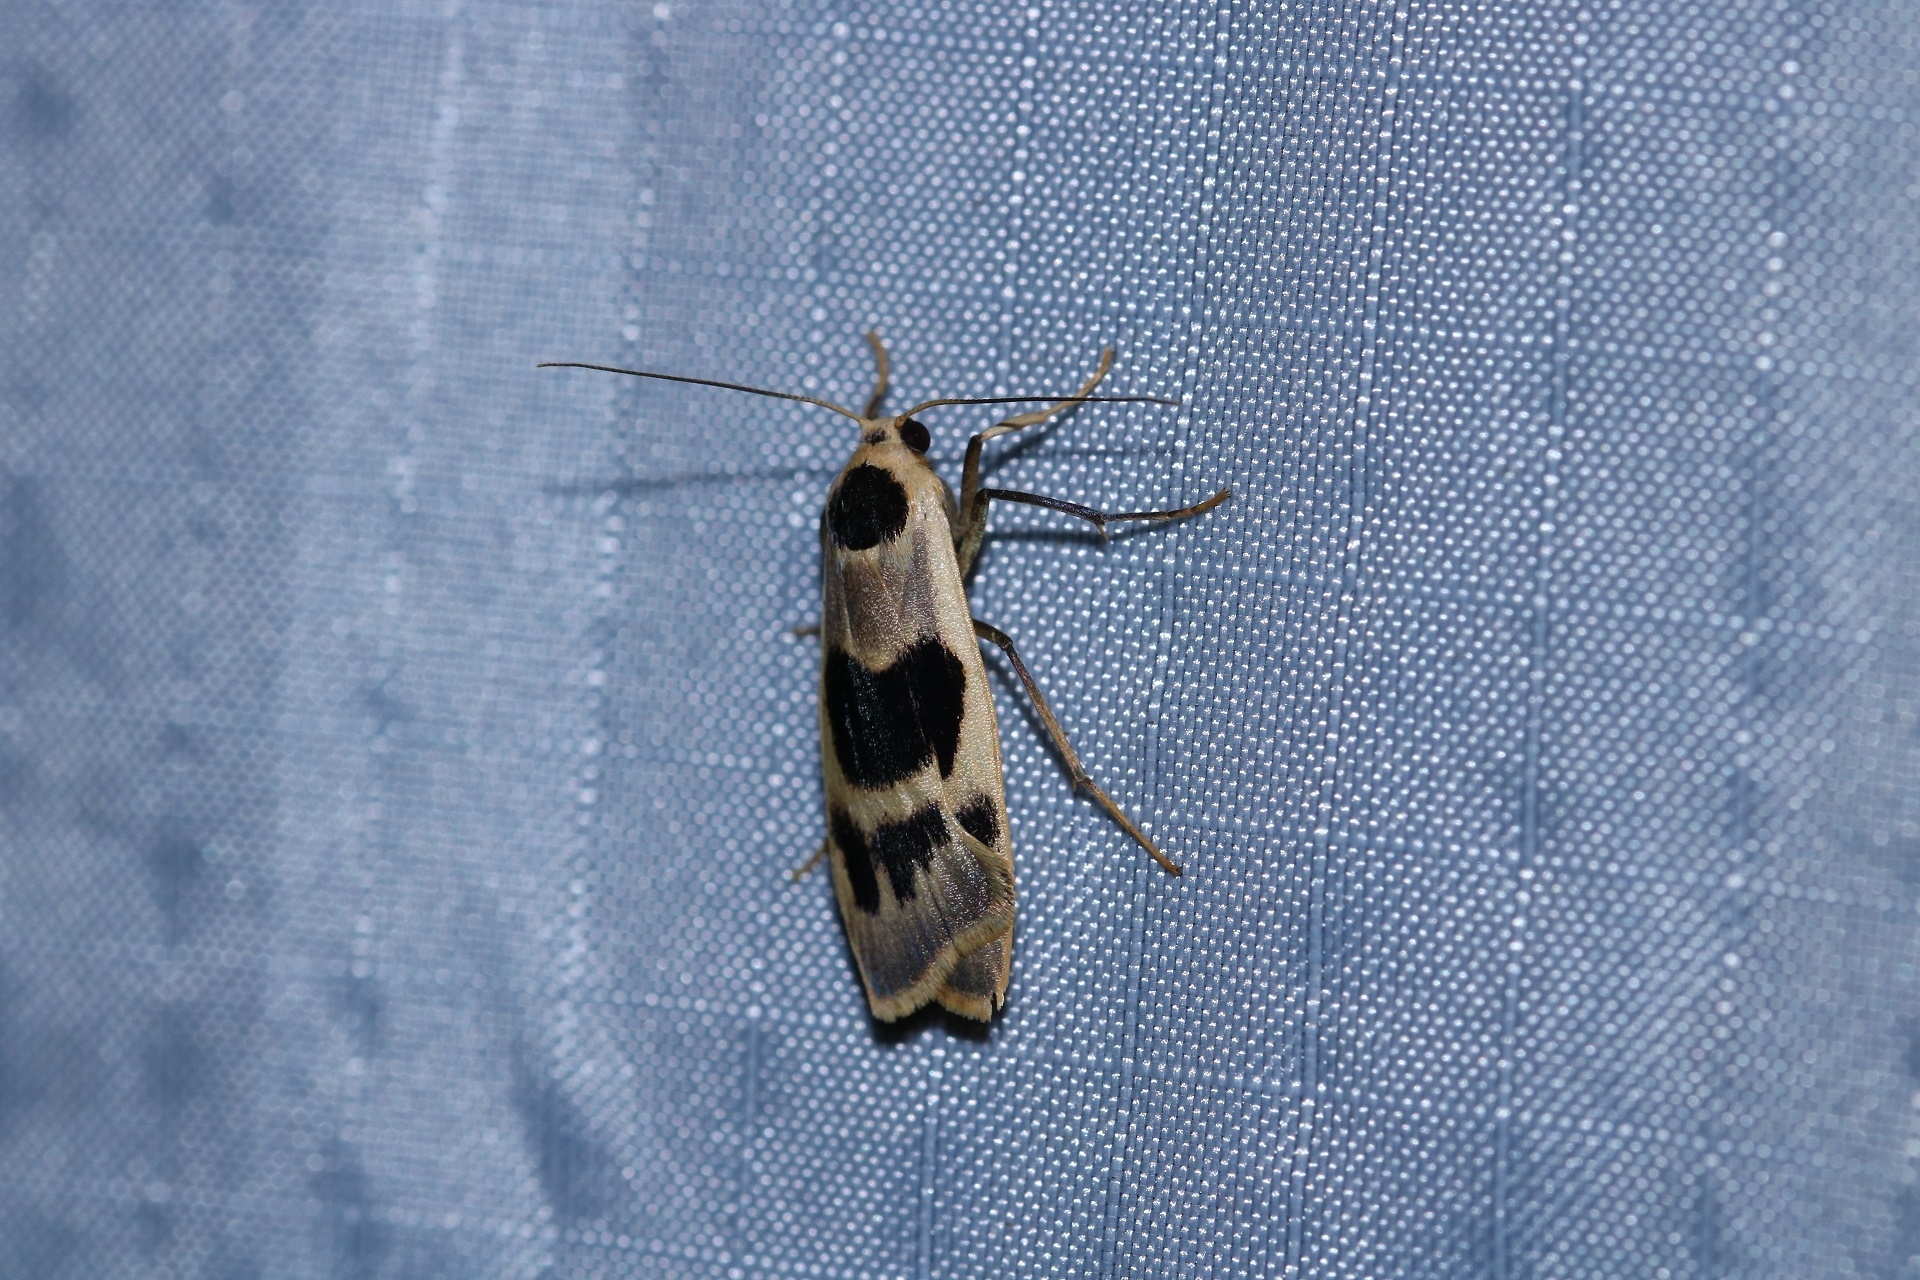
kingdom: Animalia
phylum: Arthropoda
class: Insecta
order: Lepidoptera
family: Erebidae
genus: Teulisna
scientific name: Teulisna plagiata
